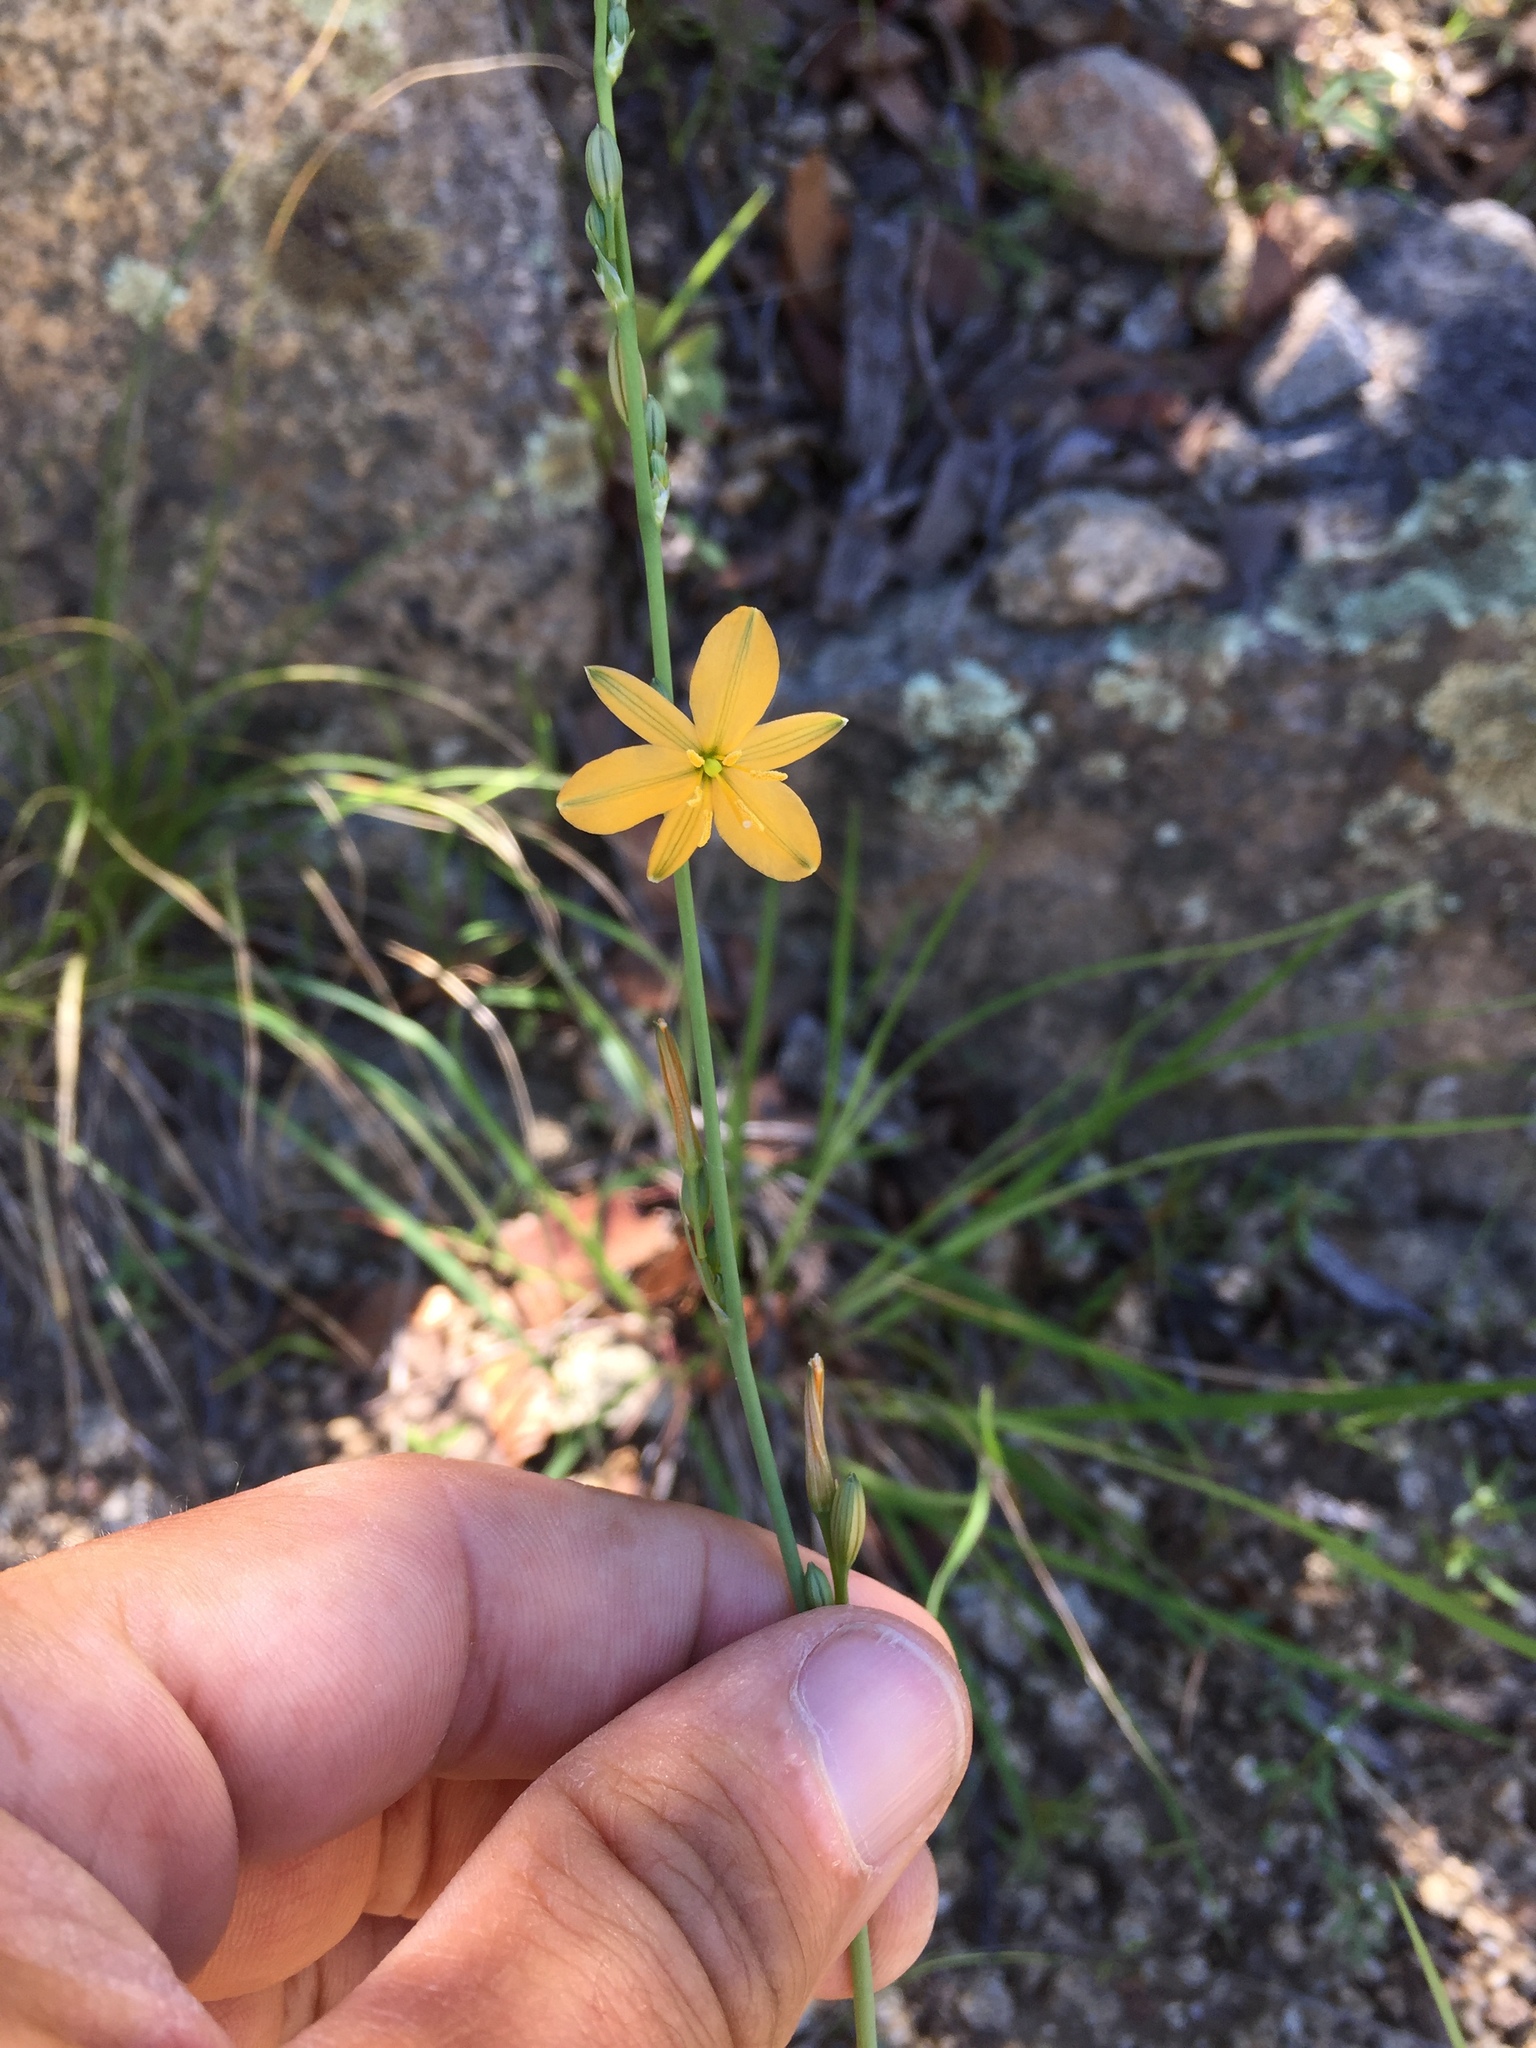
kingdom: Plantae
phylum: Tracheophyta
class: Liliopsida
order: Asparagales
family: Asparagaceae
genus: Echeandia
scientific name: Echeandia flavescens
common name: Amberlily
